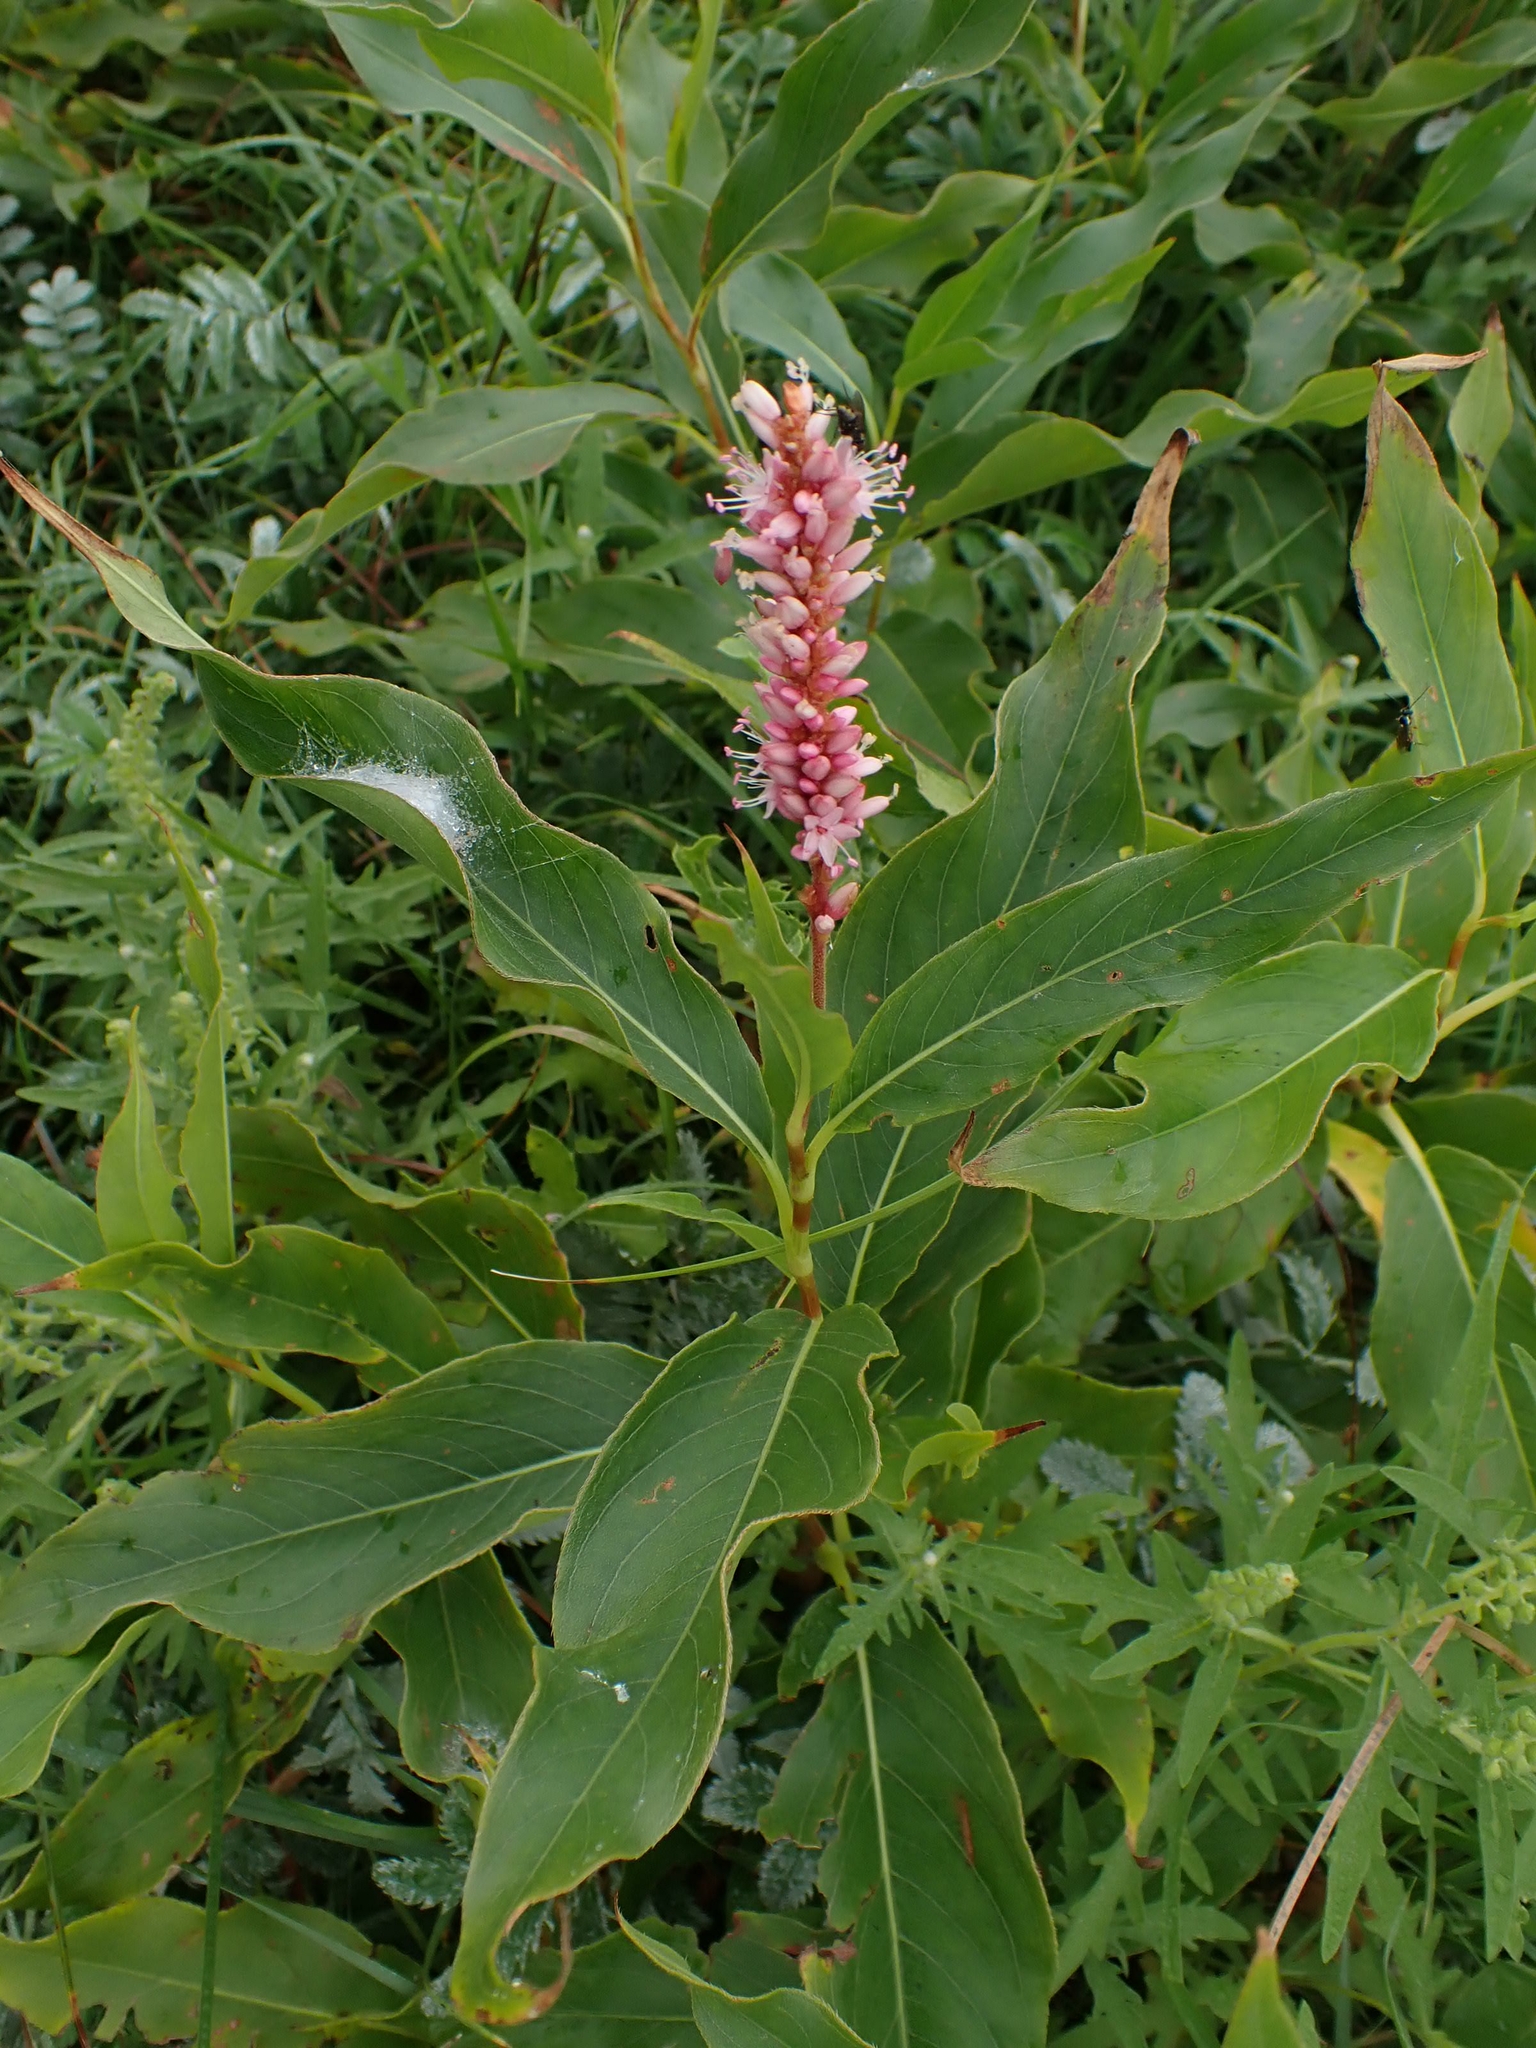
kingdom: Plantae
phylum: Tracheophyta
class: Magnoliopsida
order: Caryophyllales
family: Polygonaceae
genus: Persicaria
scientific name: Persicaria amphibia
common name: Amphibious bistort
